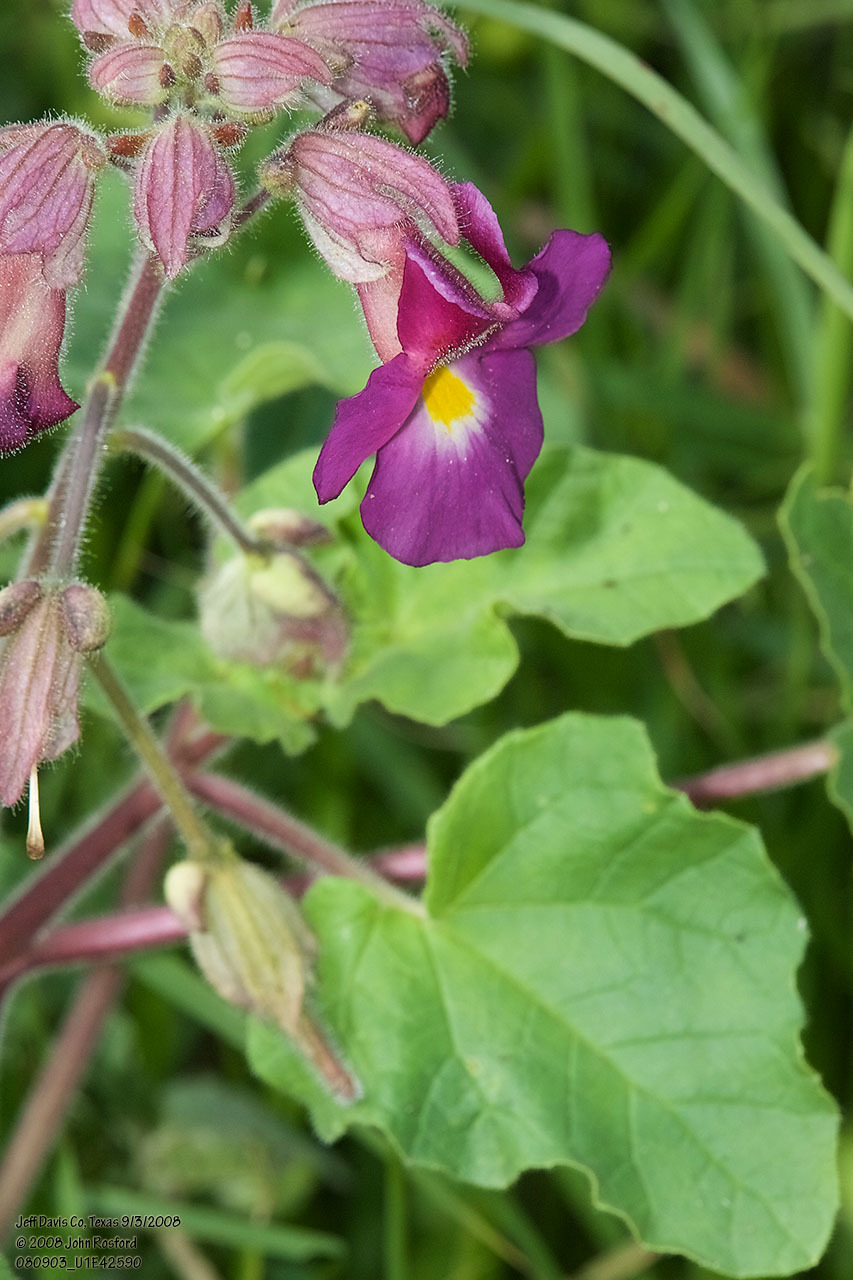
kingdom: Plantae
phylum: Tracheophyta
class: Magnoliopsida
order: Lamiales
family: Martyniaceae
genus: Proboscidea
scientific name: Proboscidea louisianica
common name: Elephant tusks
